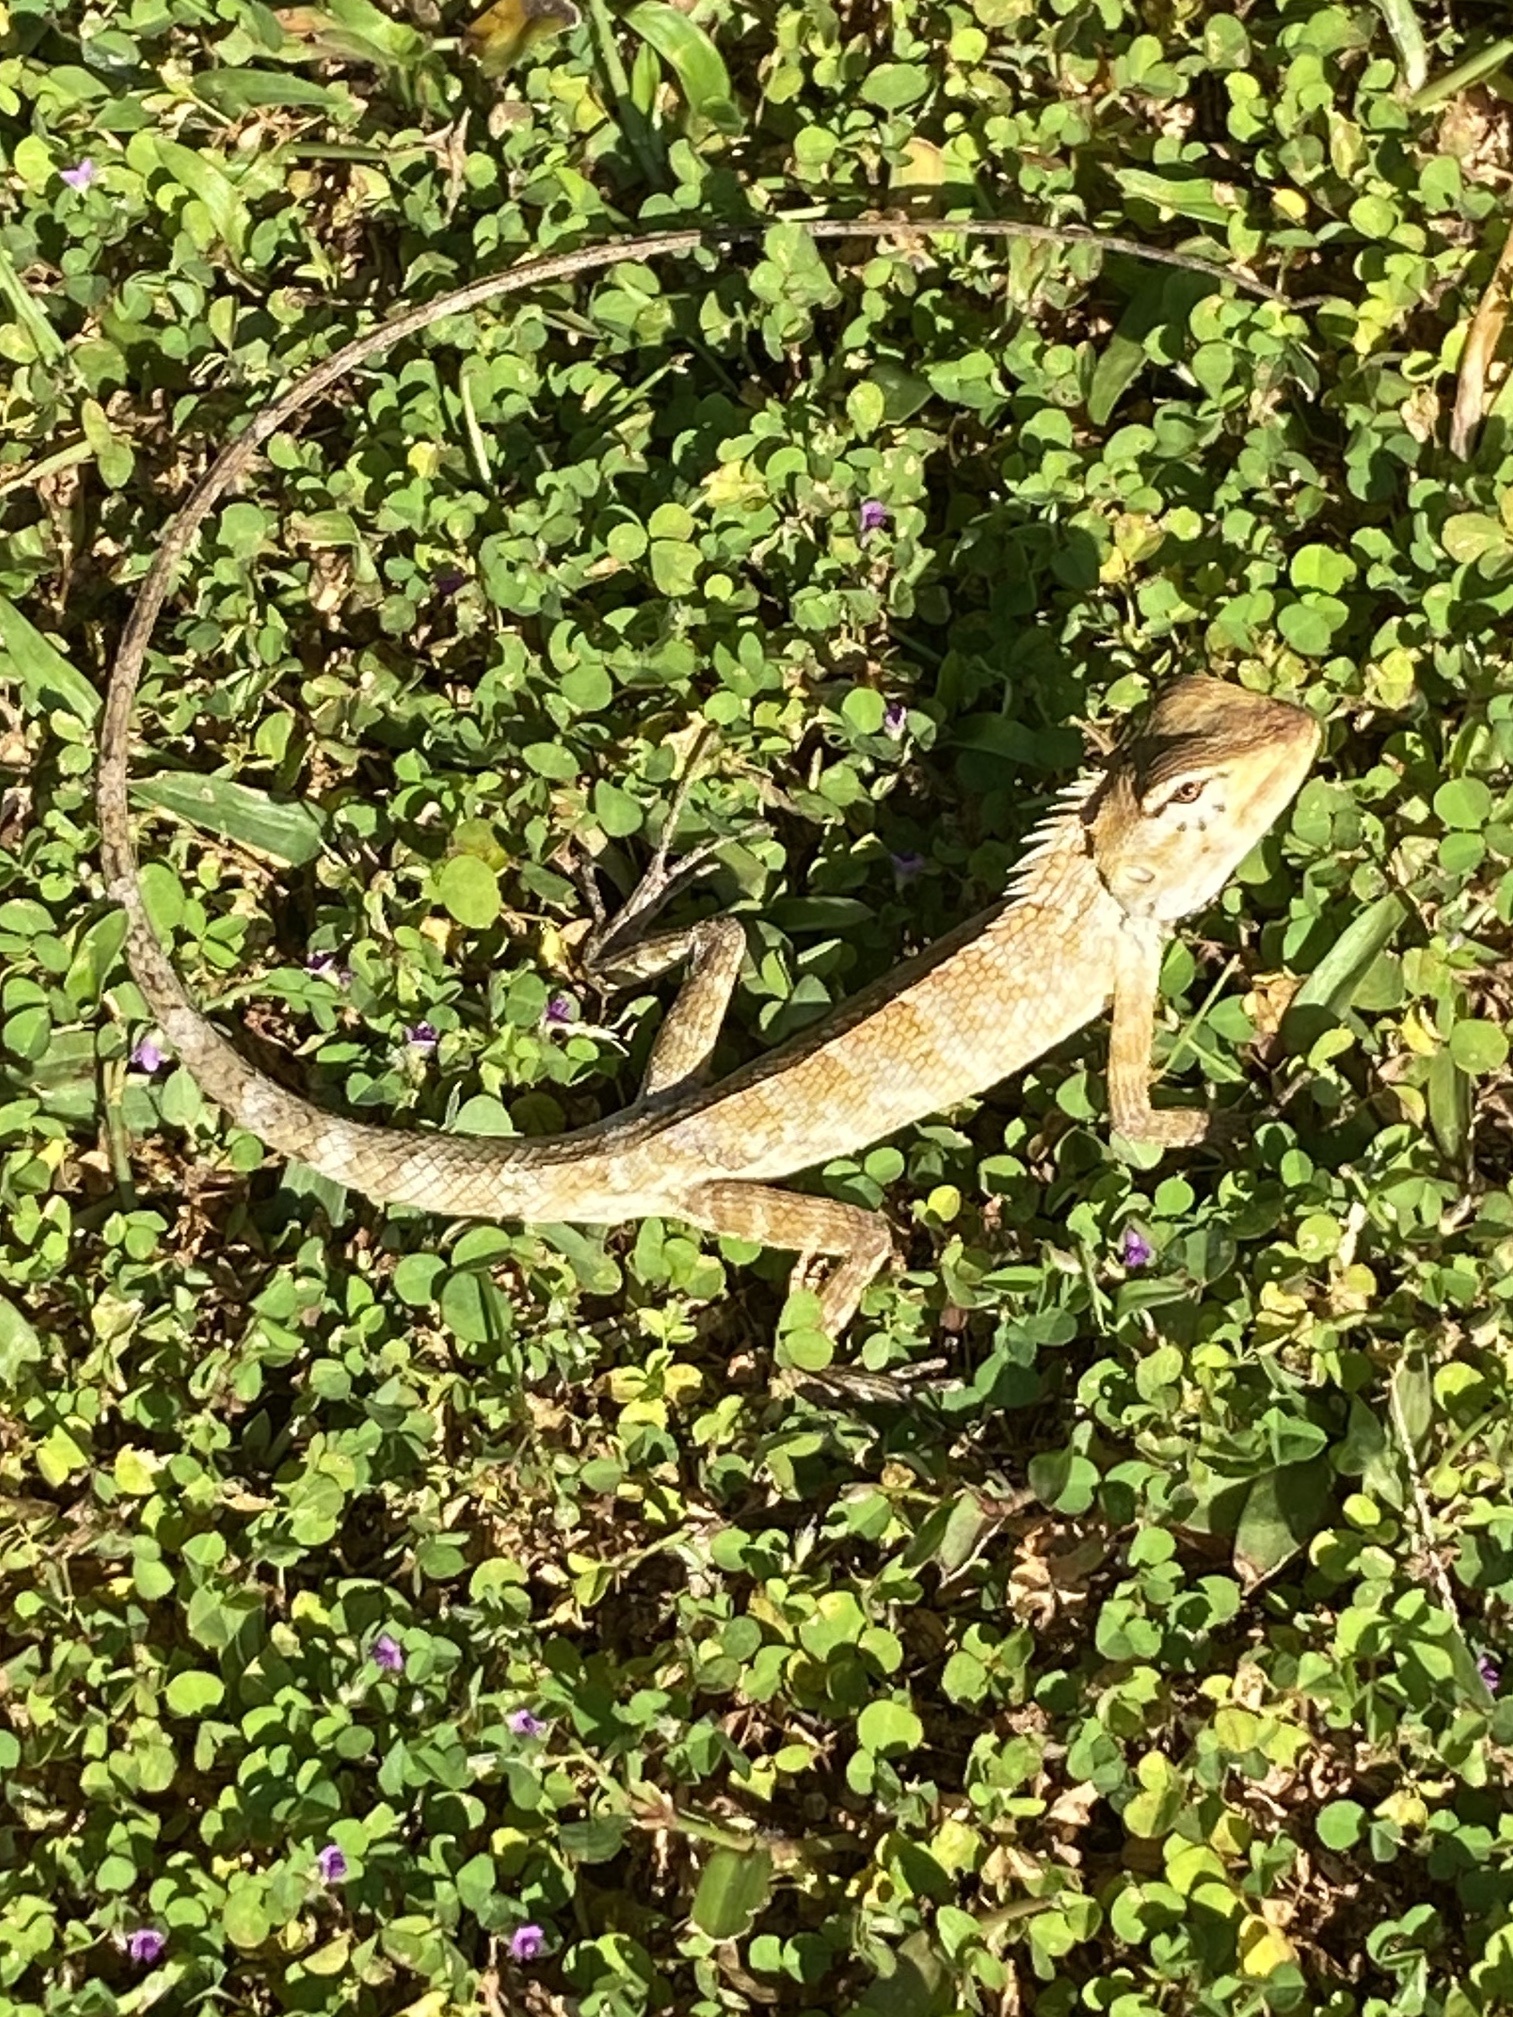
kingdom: Animalia
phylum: Chordata
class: Squamata
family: Agamidae
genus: Calotes
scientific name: Calotes versicolor
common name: Oriental garden lizard
